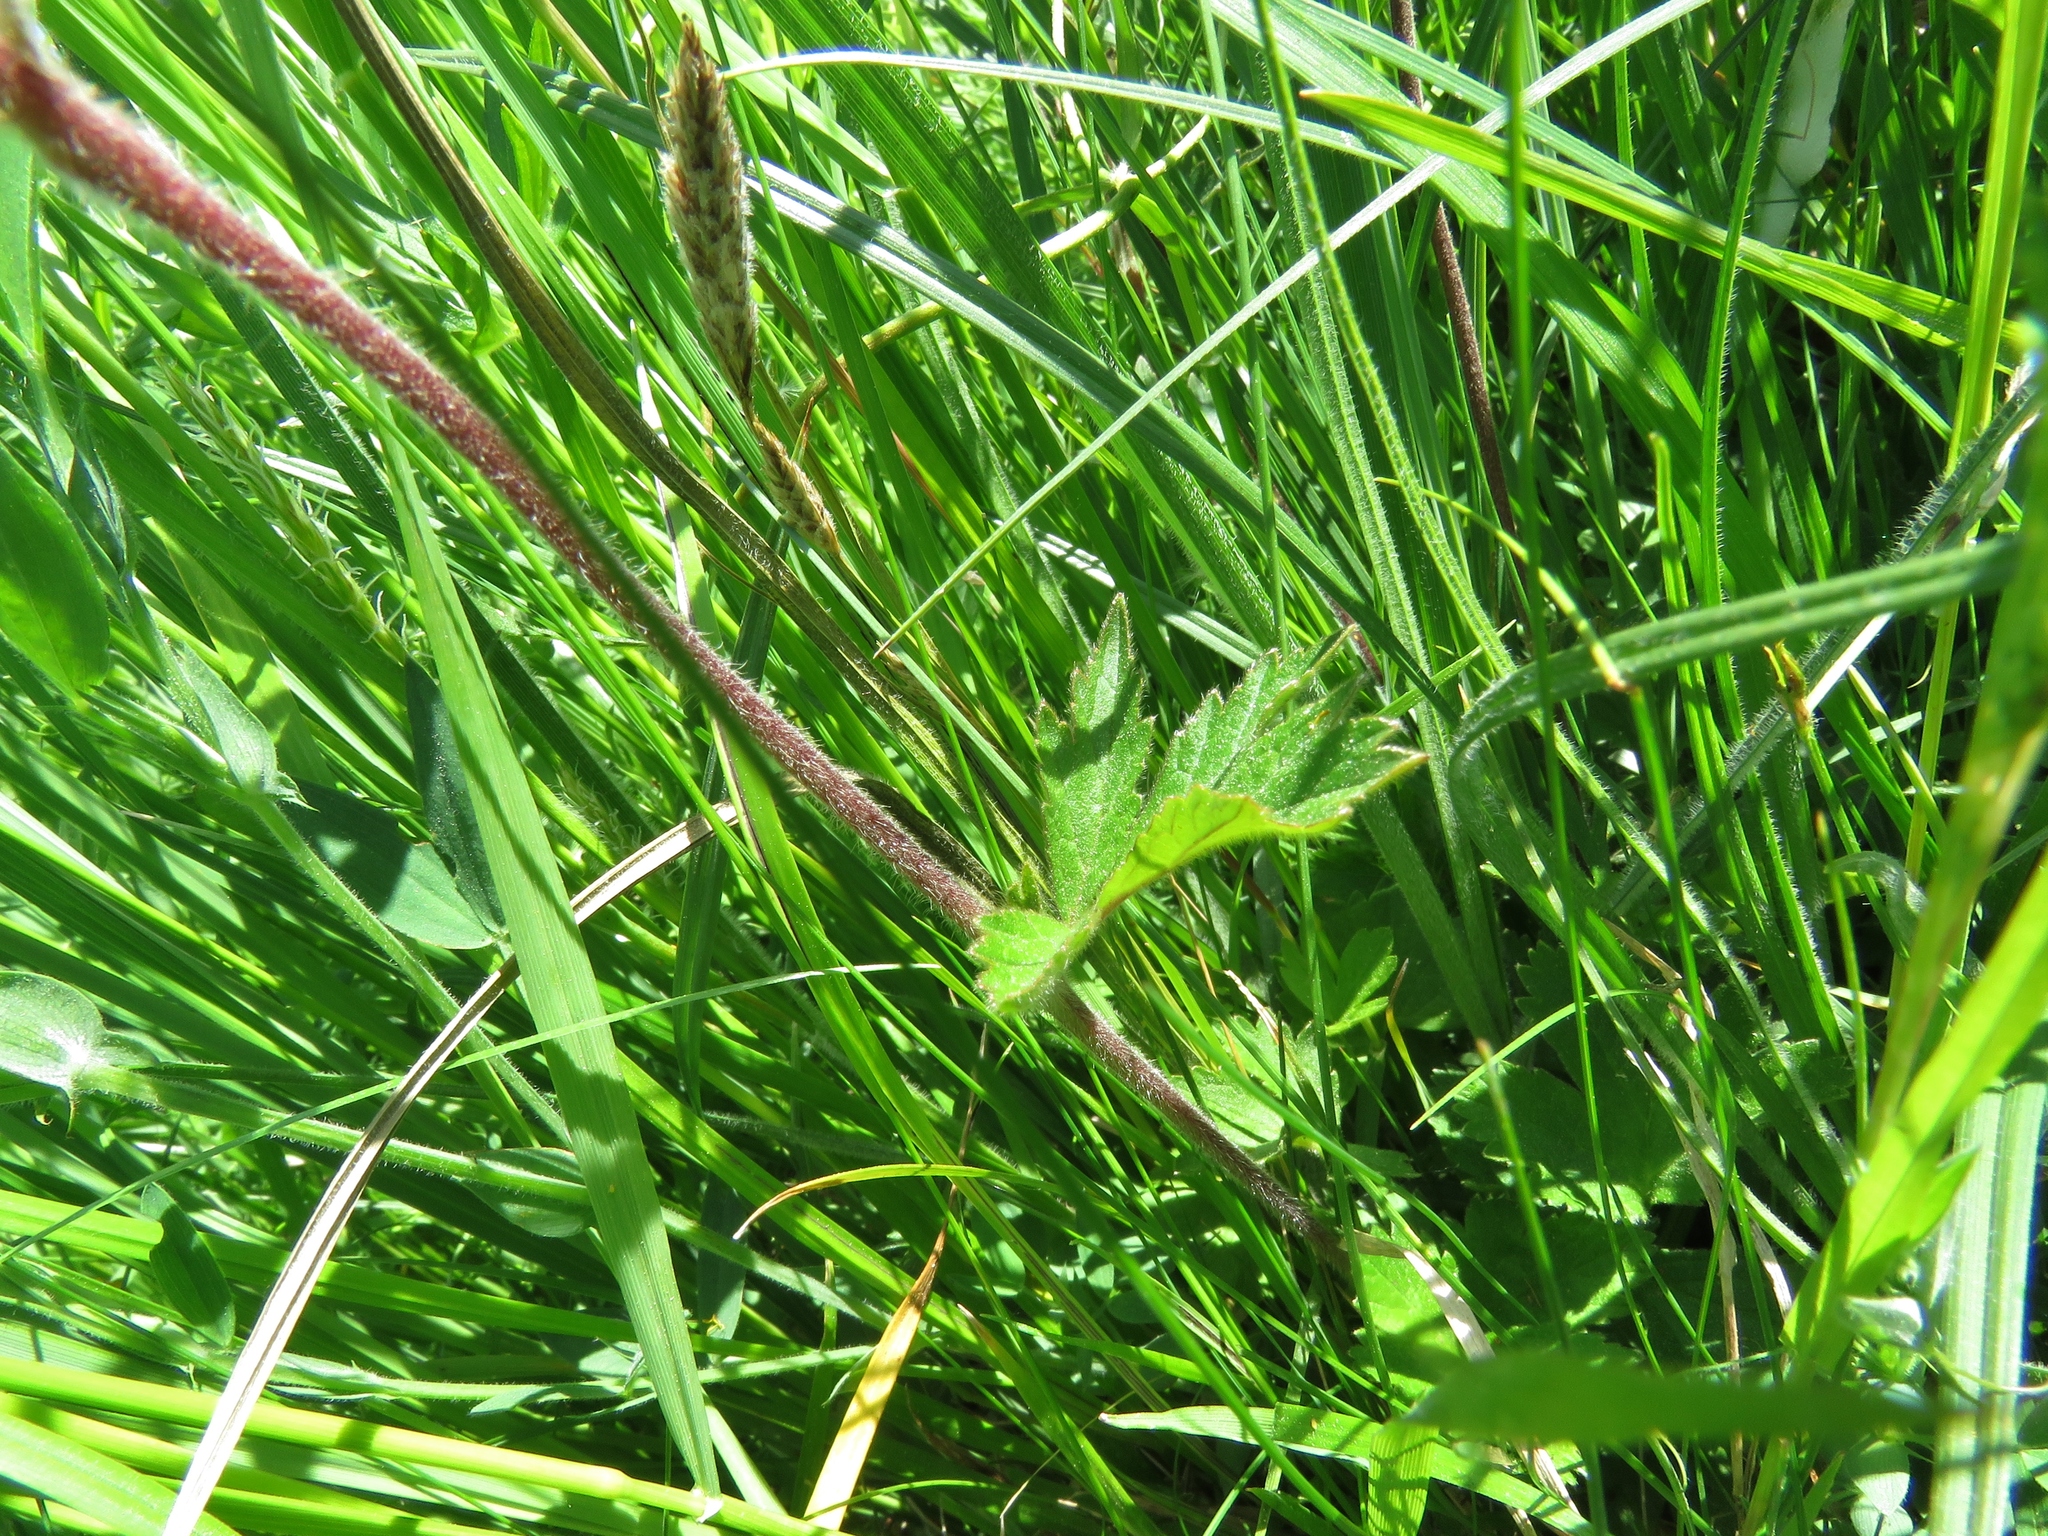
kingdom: Plantae
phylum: Tracheophyta
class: Magnoliopsida
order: Rosales
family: Rosaceae
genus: Geum
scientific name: Geum rivale
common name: Water avens
